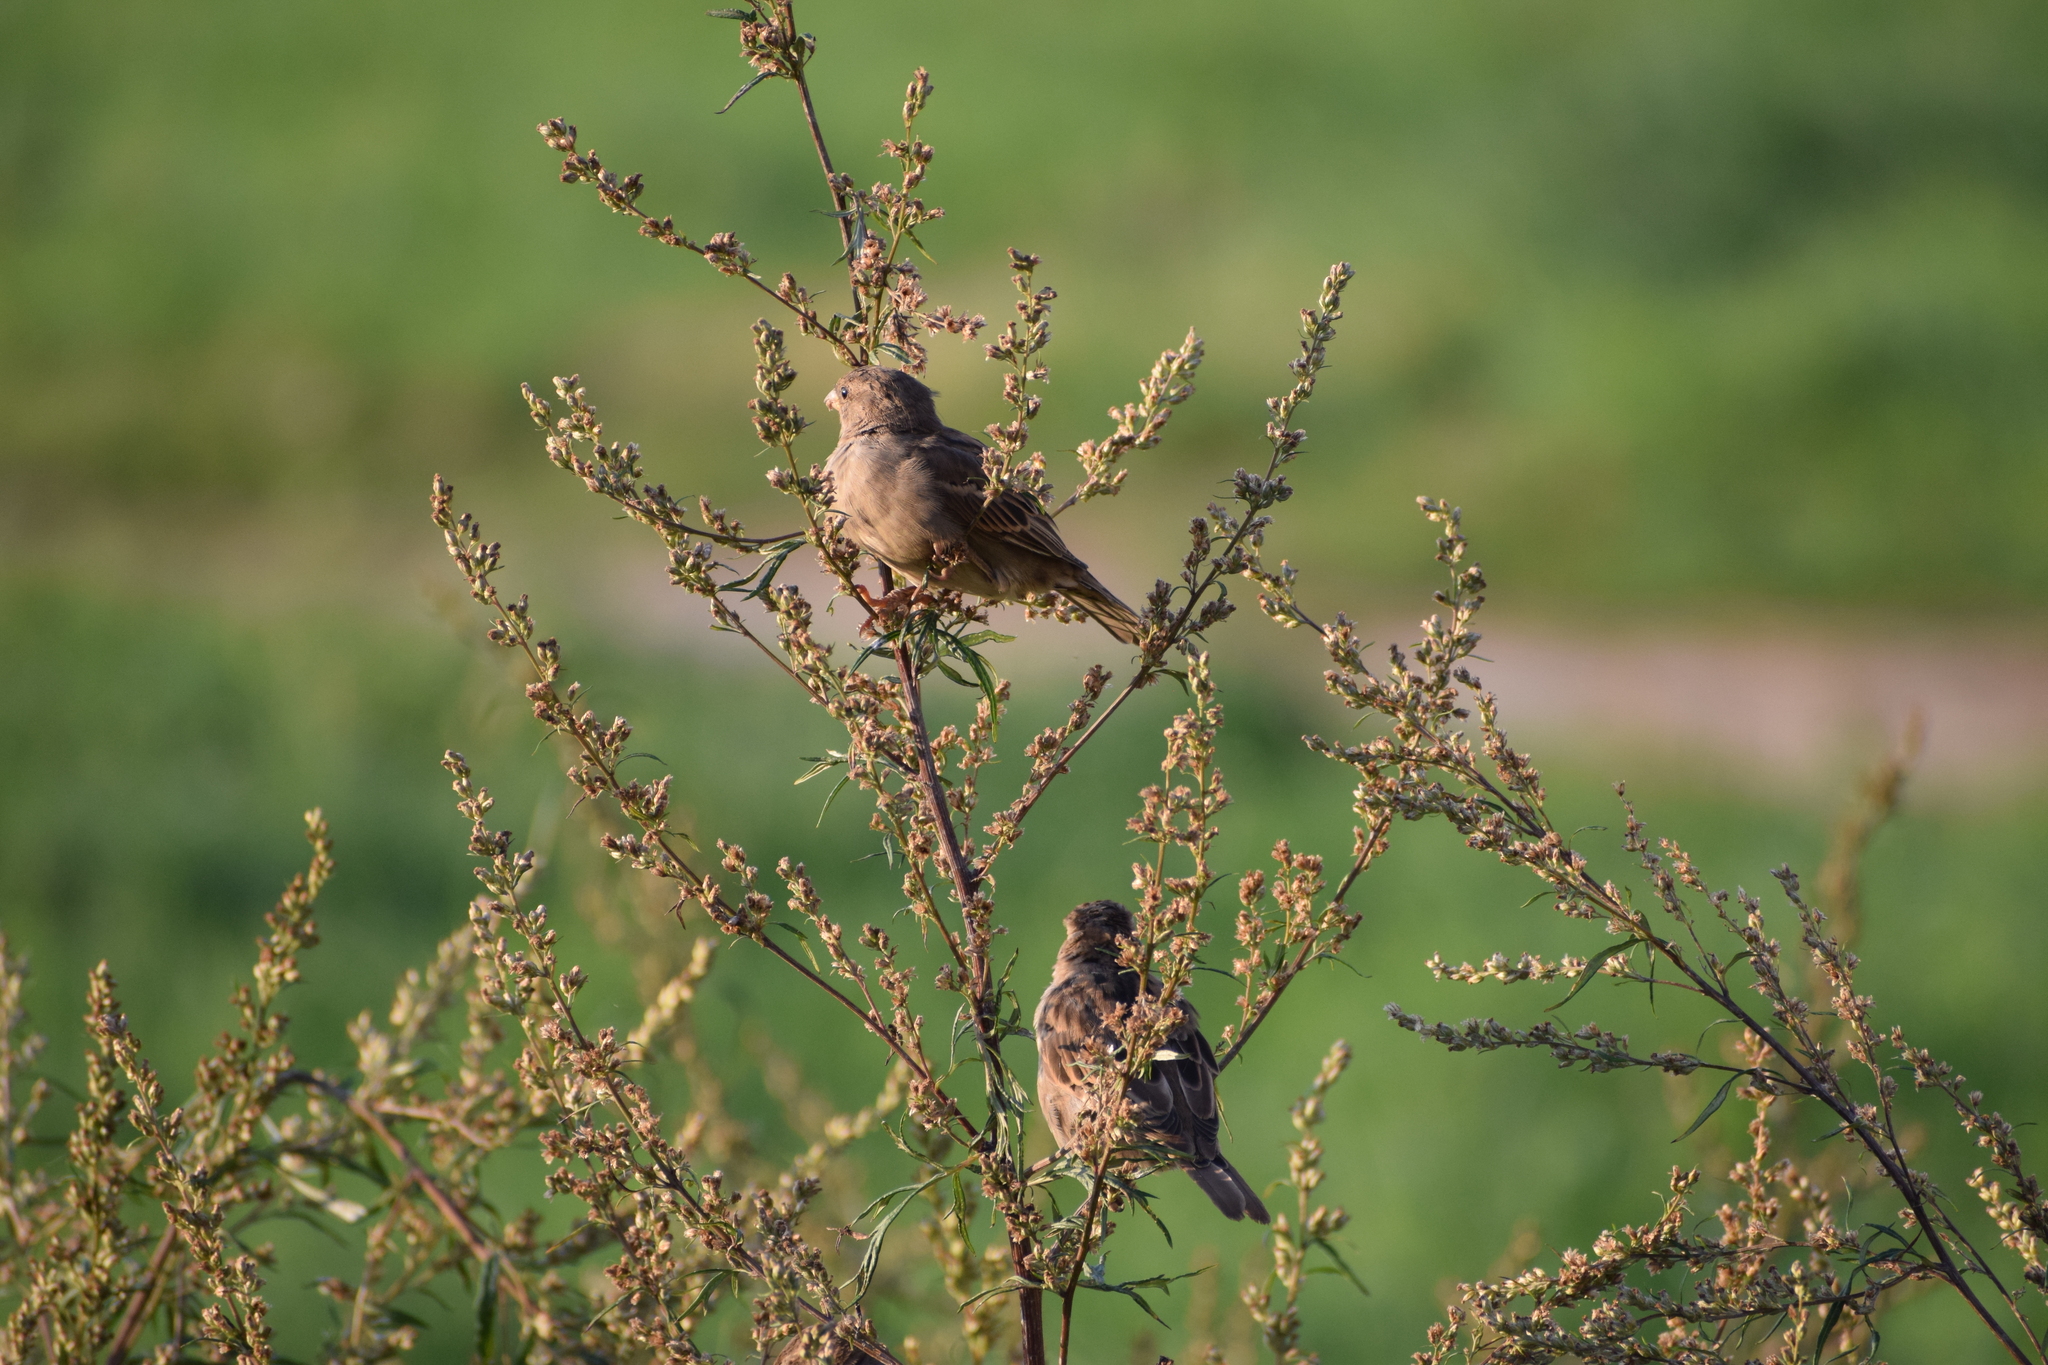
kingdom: Animalia
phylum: Chordata
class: Aves
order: Passeriformes
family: Passeridae
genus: Passer
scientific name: Passer domesticus
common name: House sparrow
